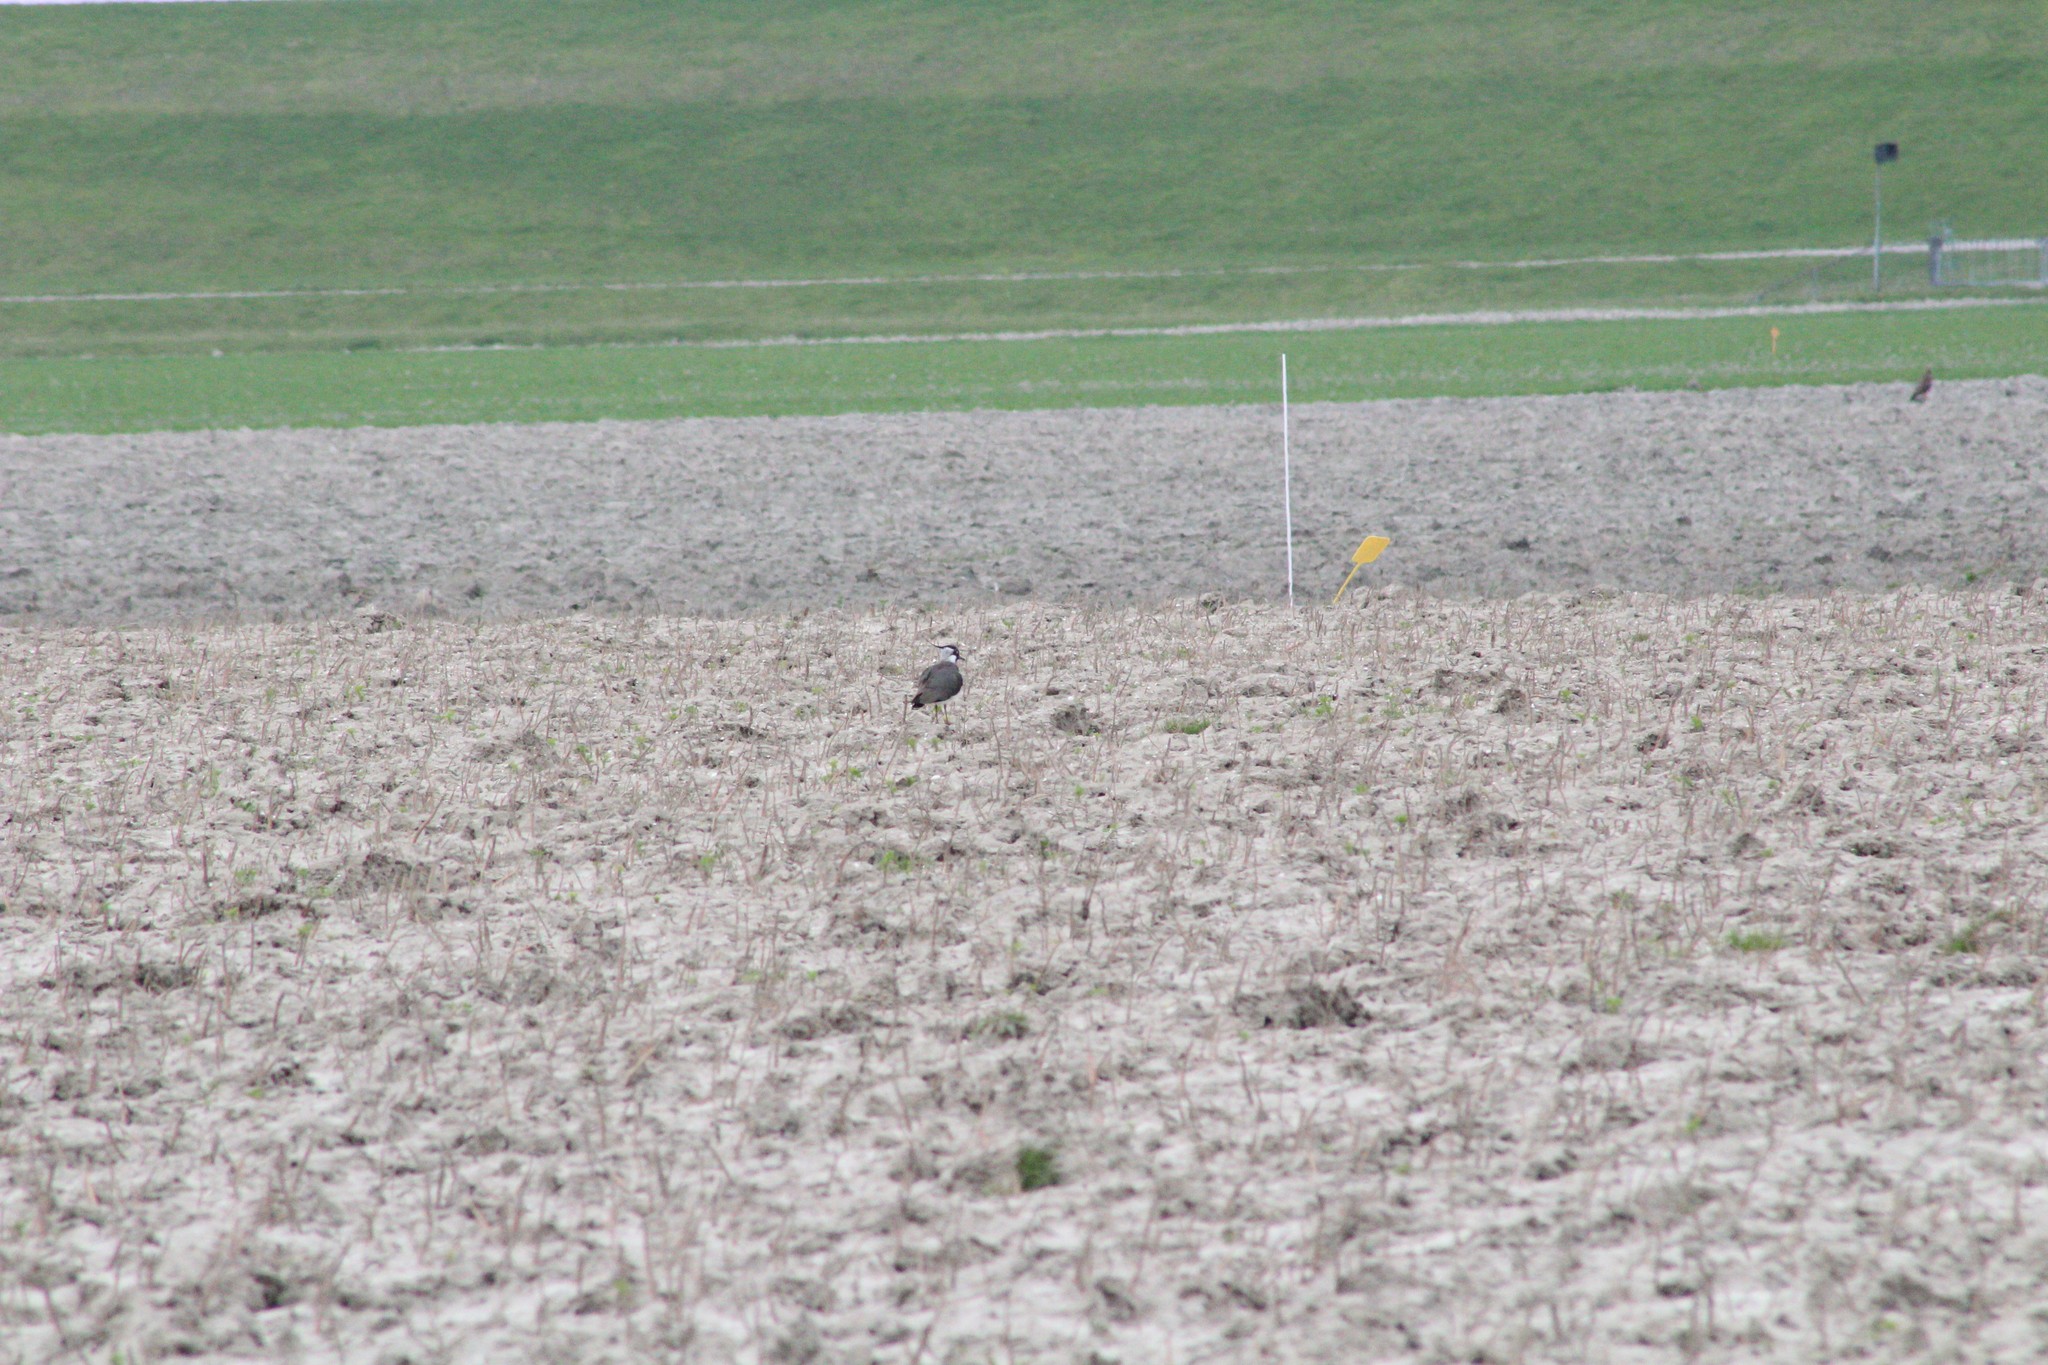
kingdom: Animalia
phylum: Chordata
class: Aves
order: Charadriiformes
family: Charadriidae
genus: Vanellus
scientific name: Vanellus vanellus
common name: Northern lapwing
